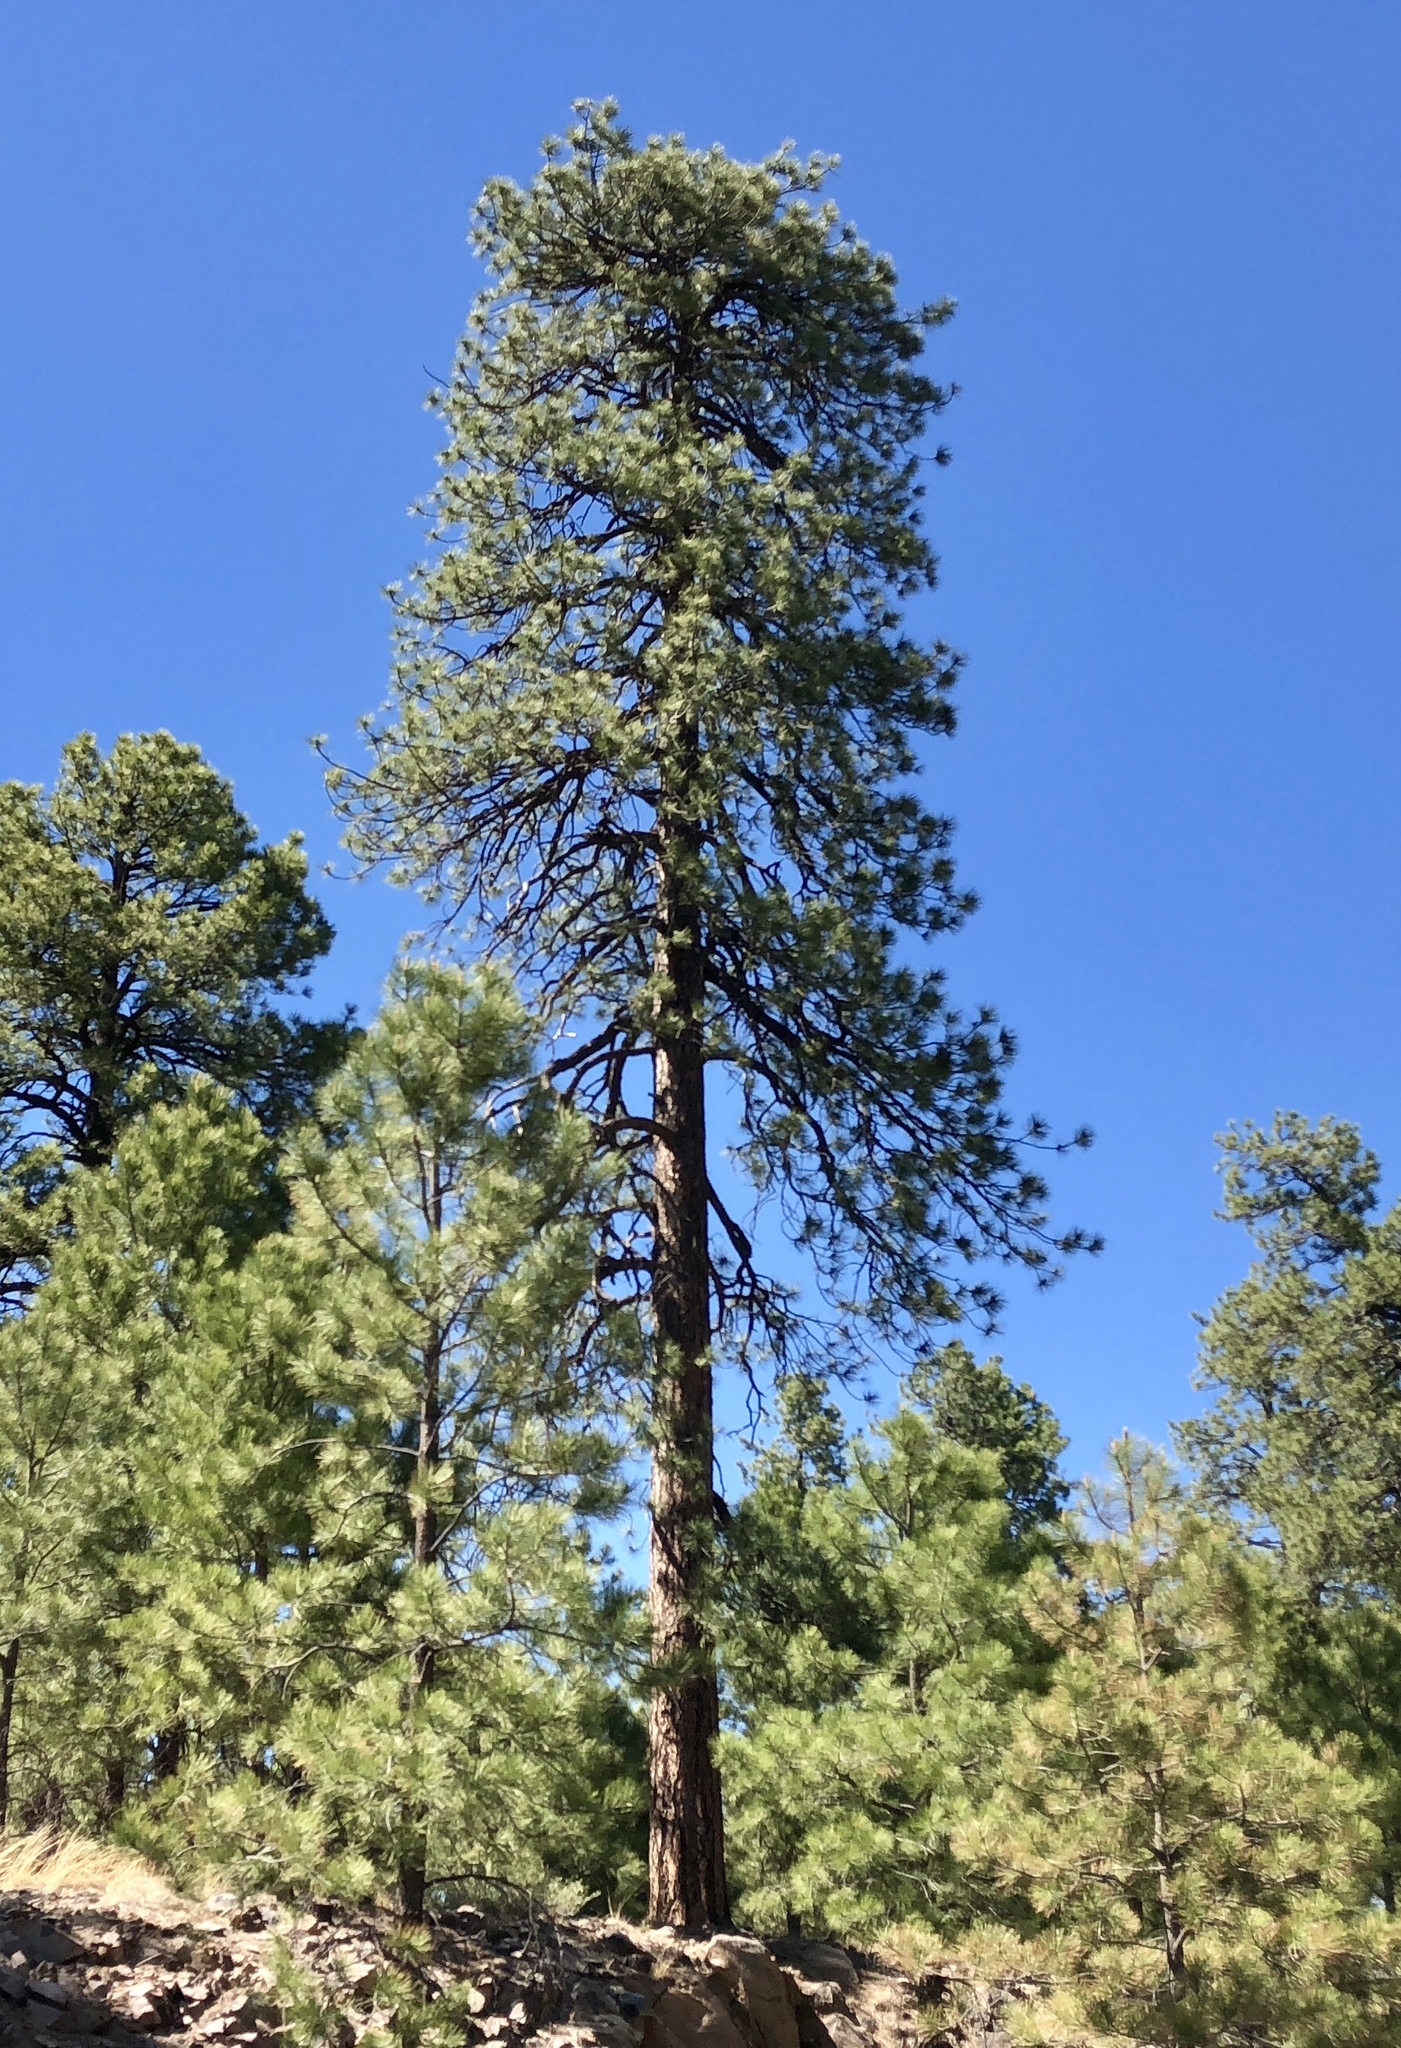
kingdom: Plantae
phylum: Tracheophyta
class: Pinopsida
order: Pinales
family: Pinaceae
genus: Pinus
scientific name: Pinus ponderosa
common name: Western yellow-pine
